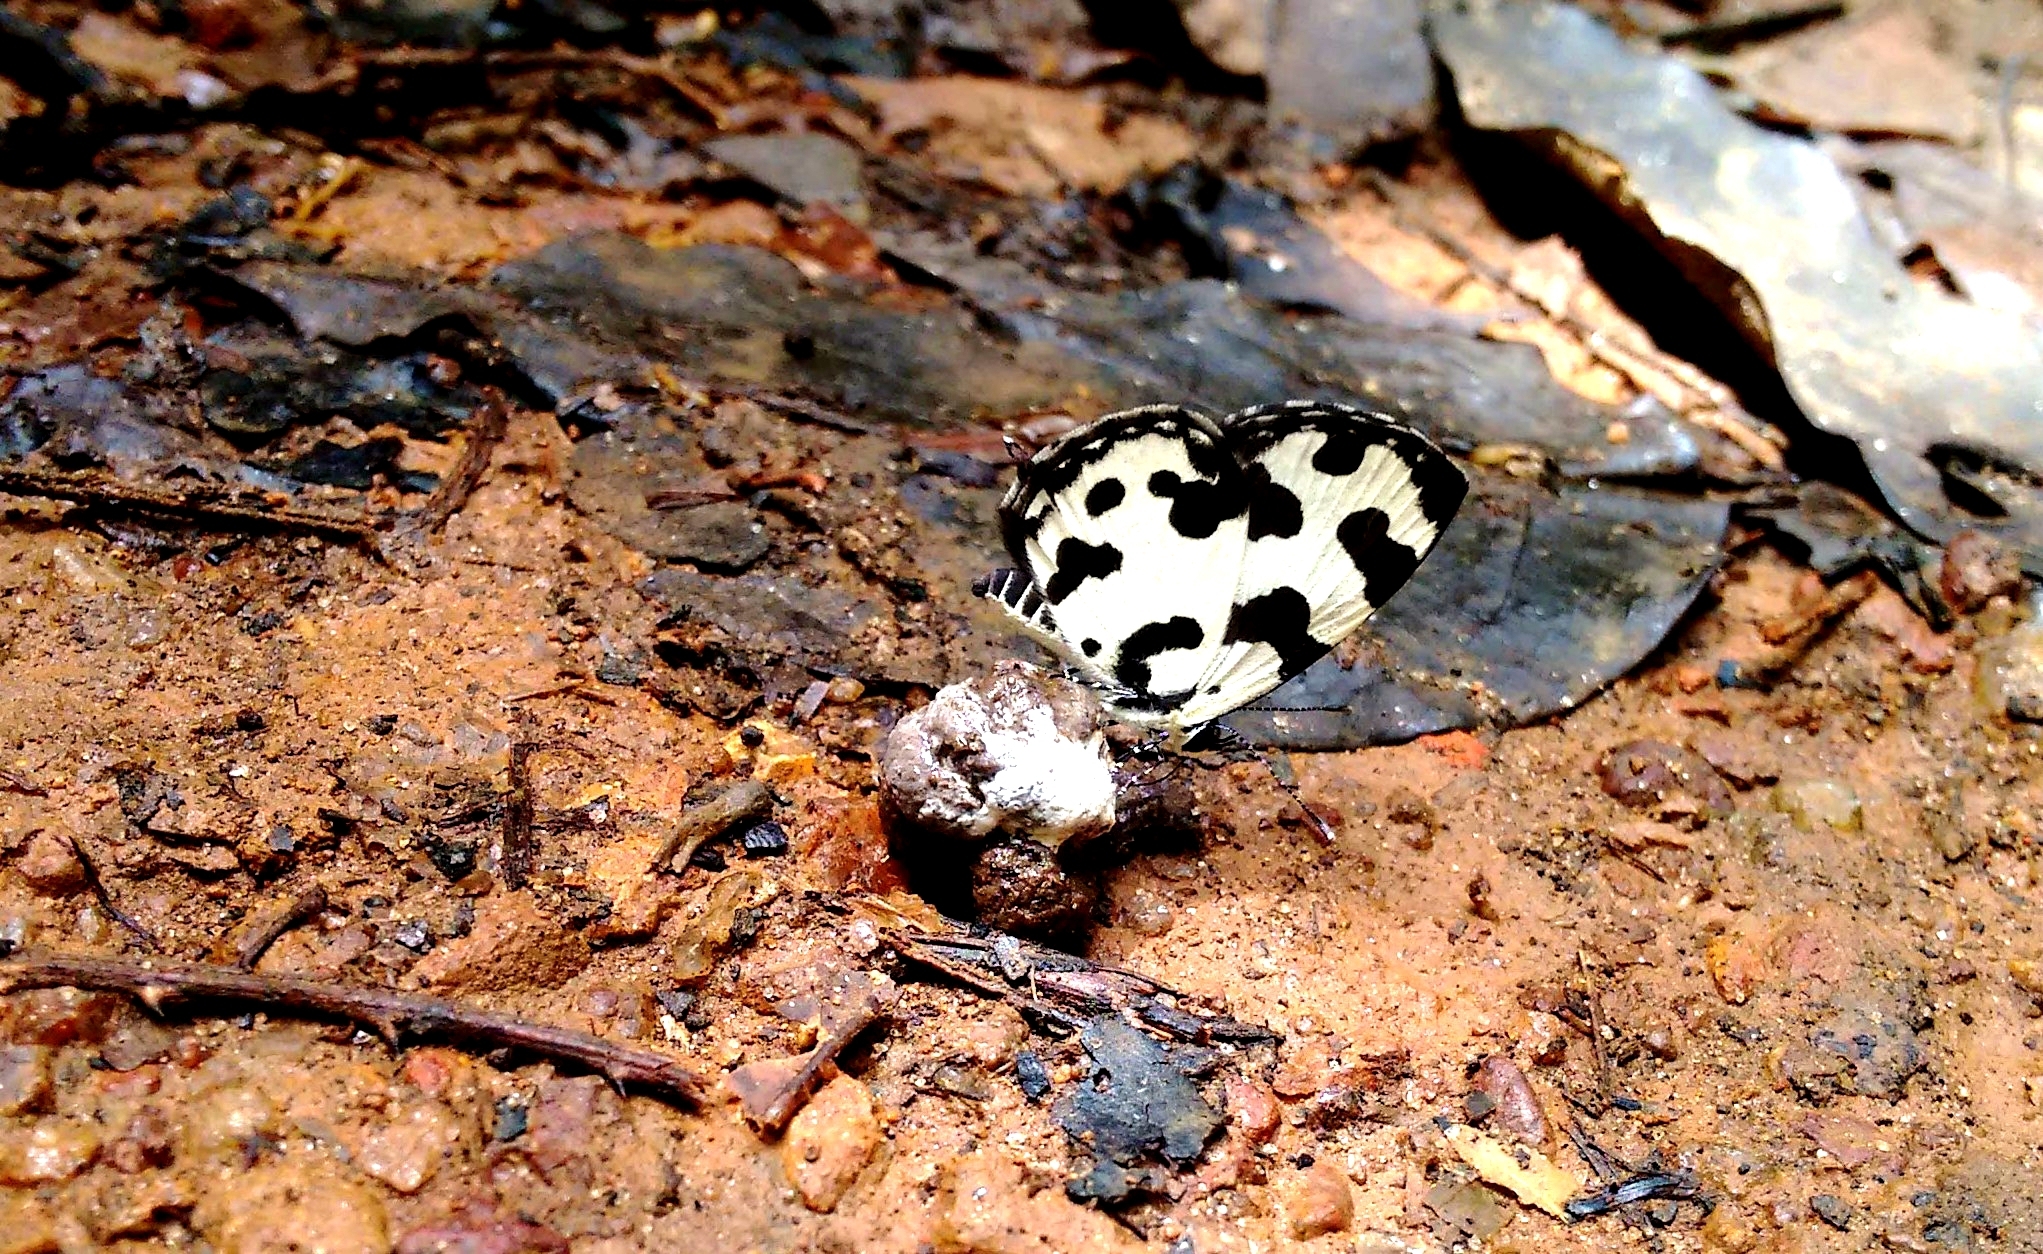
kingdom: Animalia
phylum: Arthropoda
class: Insecta
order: Lepidoptera
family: Lycaenidae
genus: Caleta
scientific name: Caleta decidia
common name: Angled pierrot
